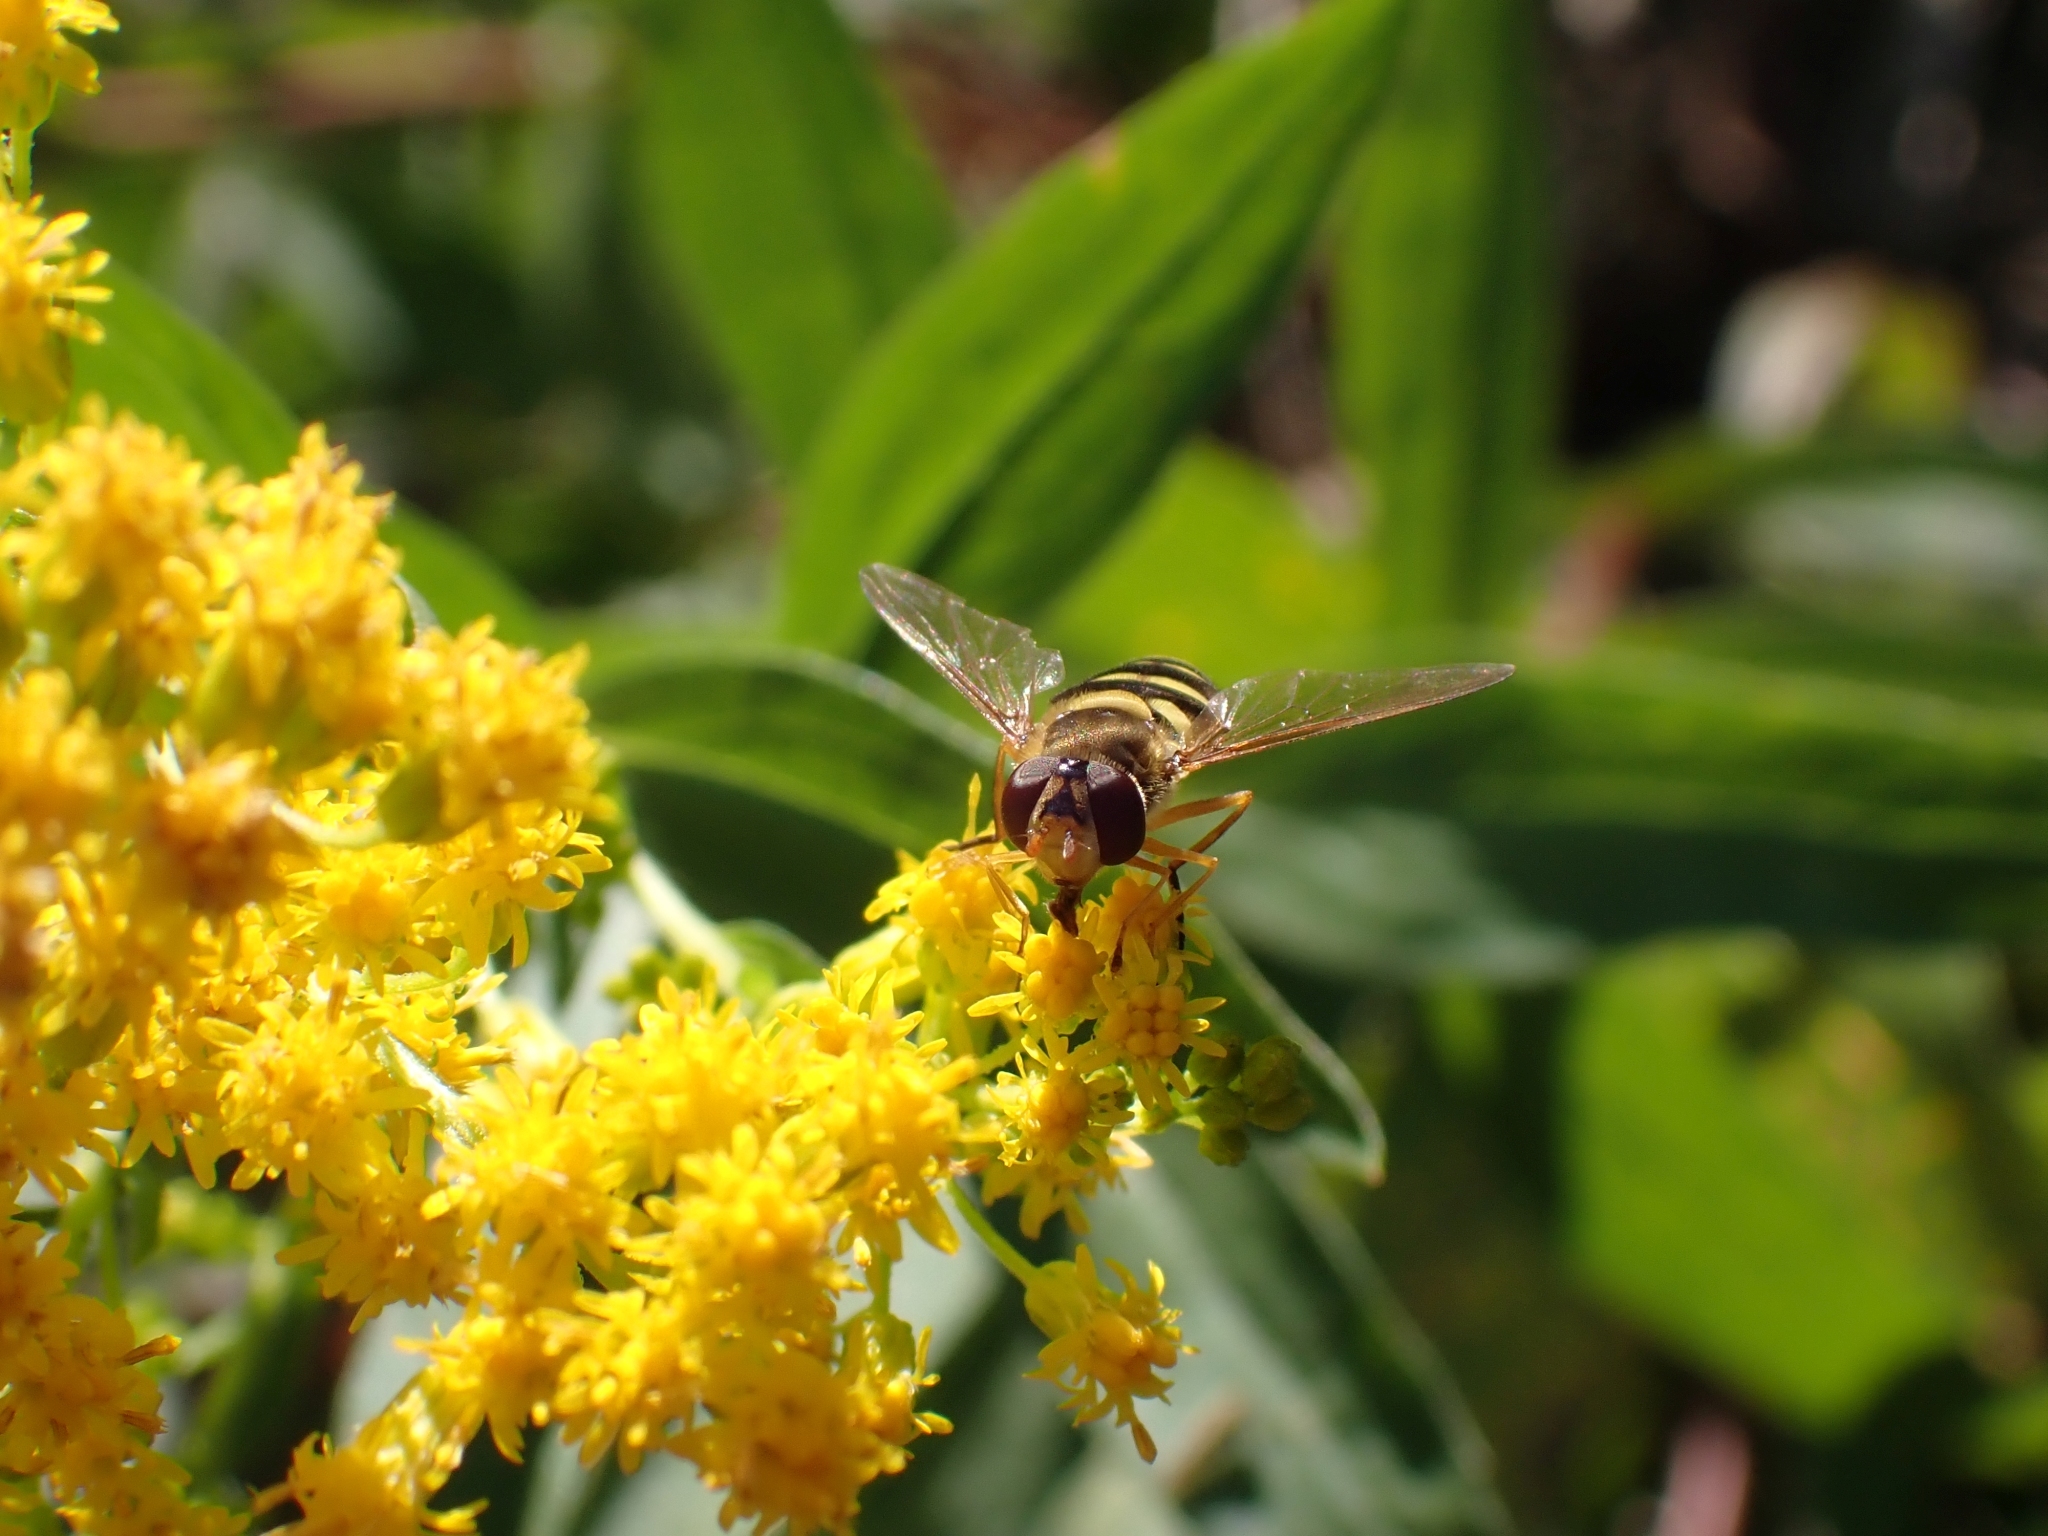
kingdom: Animalia
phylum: Arthropoda
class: Insecta
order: Diptera
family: Syrphidae
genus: Syrphus
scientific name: Syrphus ribesii
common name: Common flower fly
